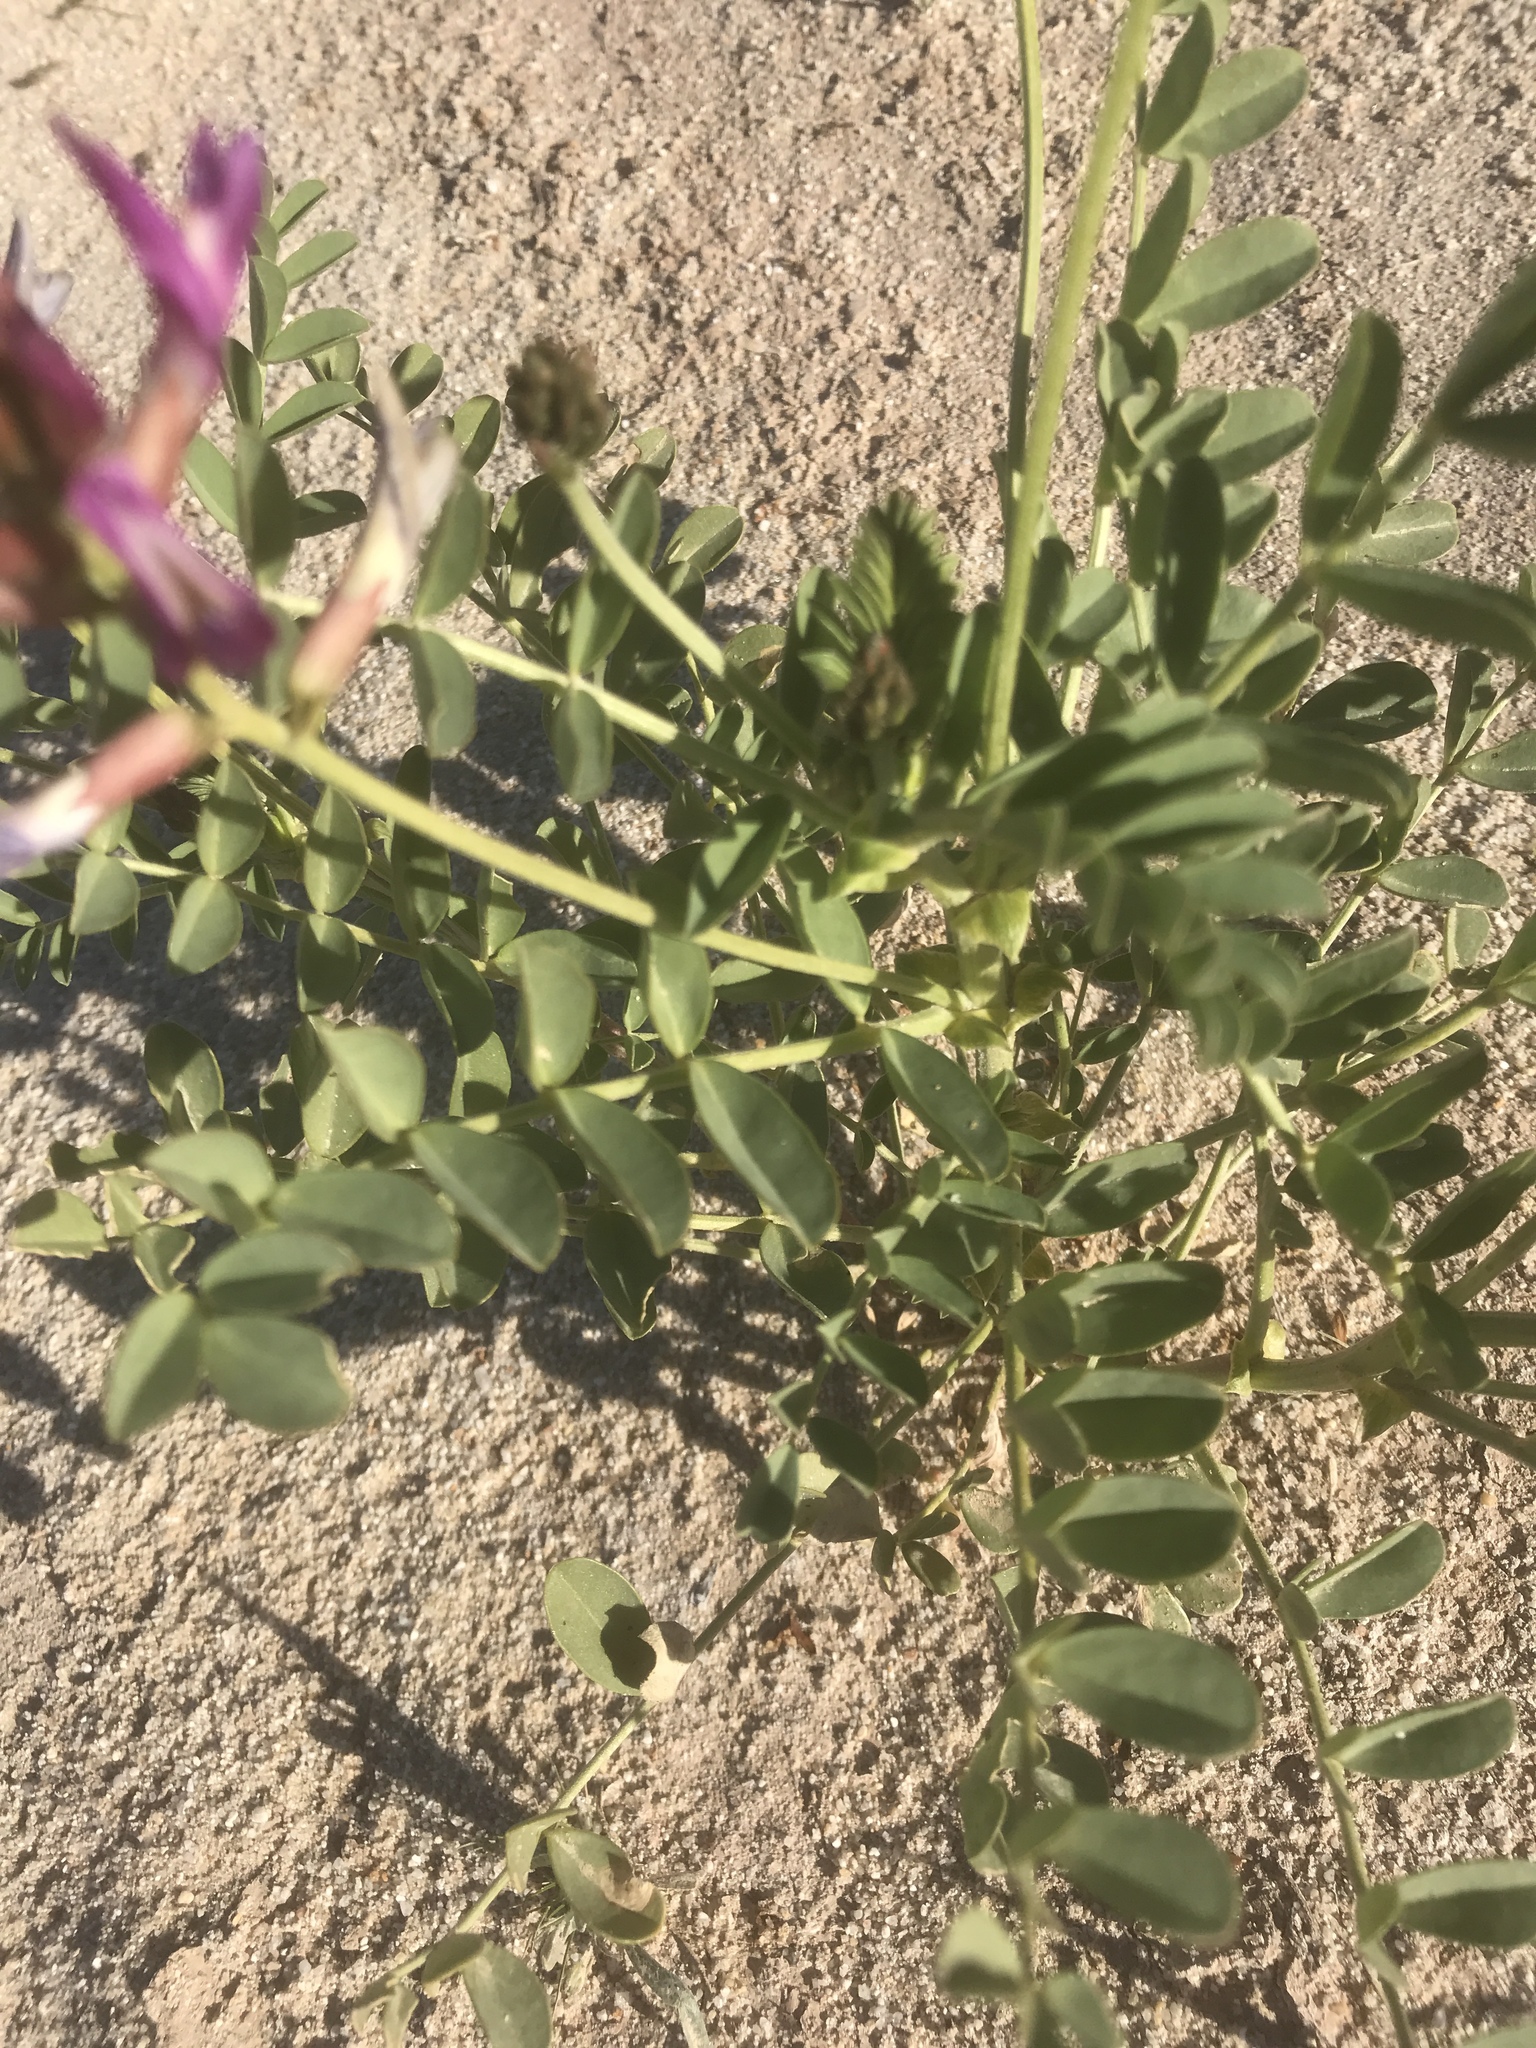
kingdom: Plantae
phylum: Tracheophyta
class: Magnoliopsida
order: Fabales
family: Fabaceae
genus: Astragalus
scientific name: Astragalus crotalariae
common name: Salton milkvetch
